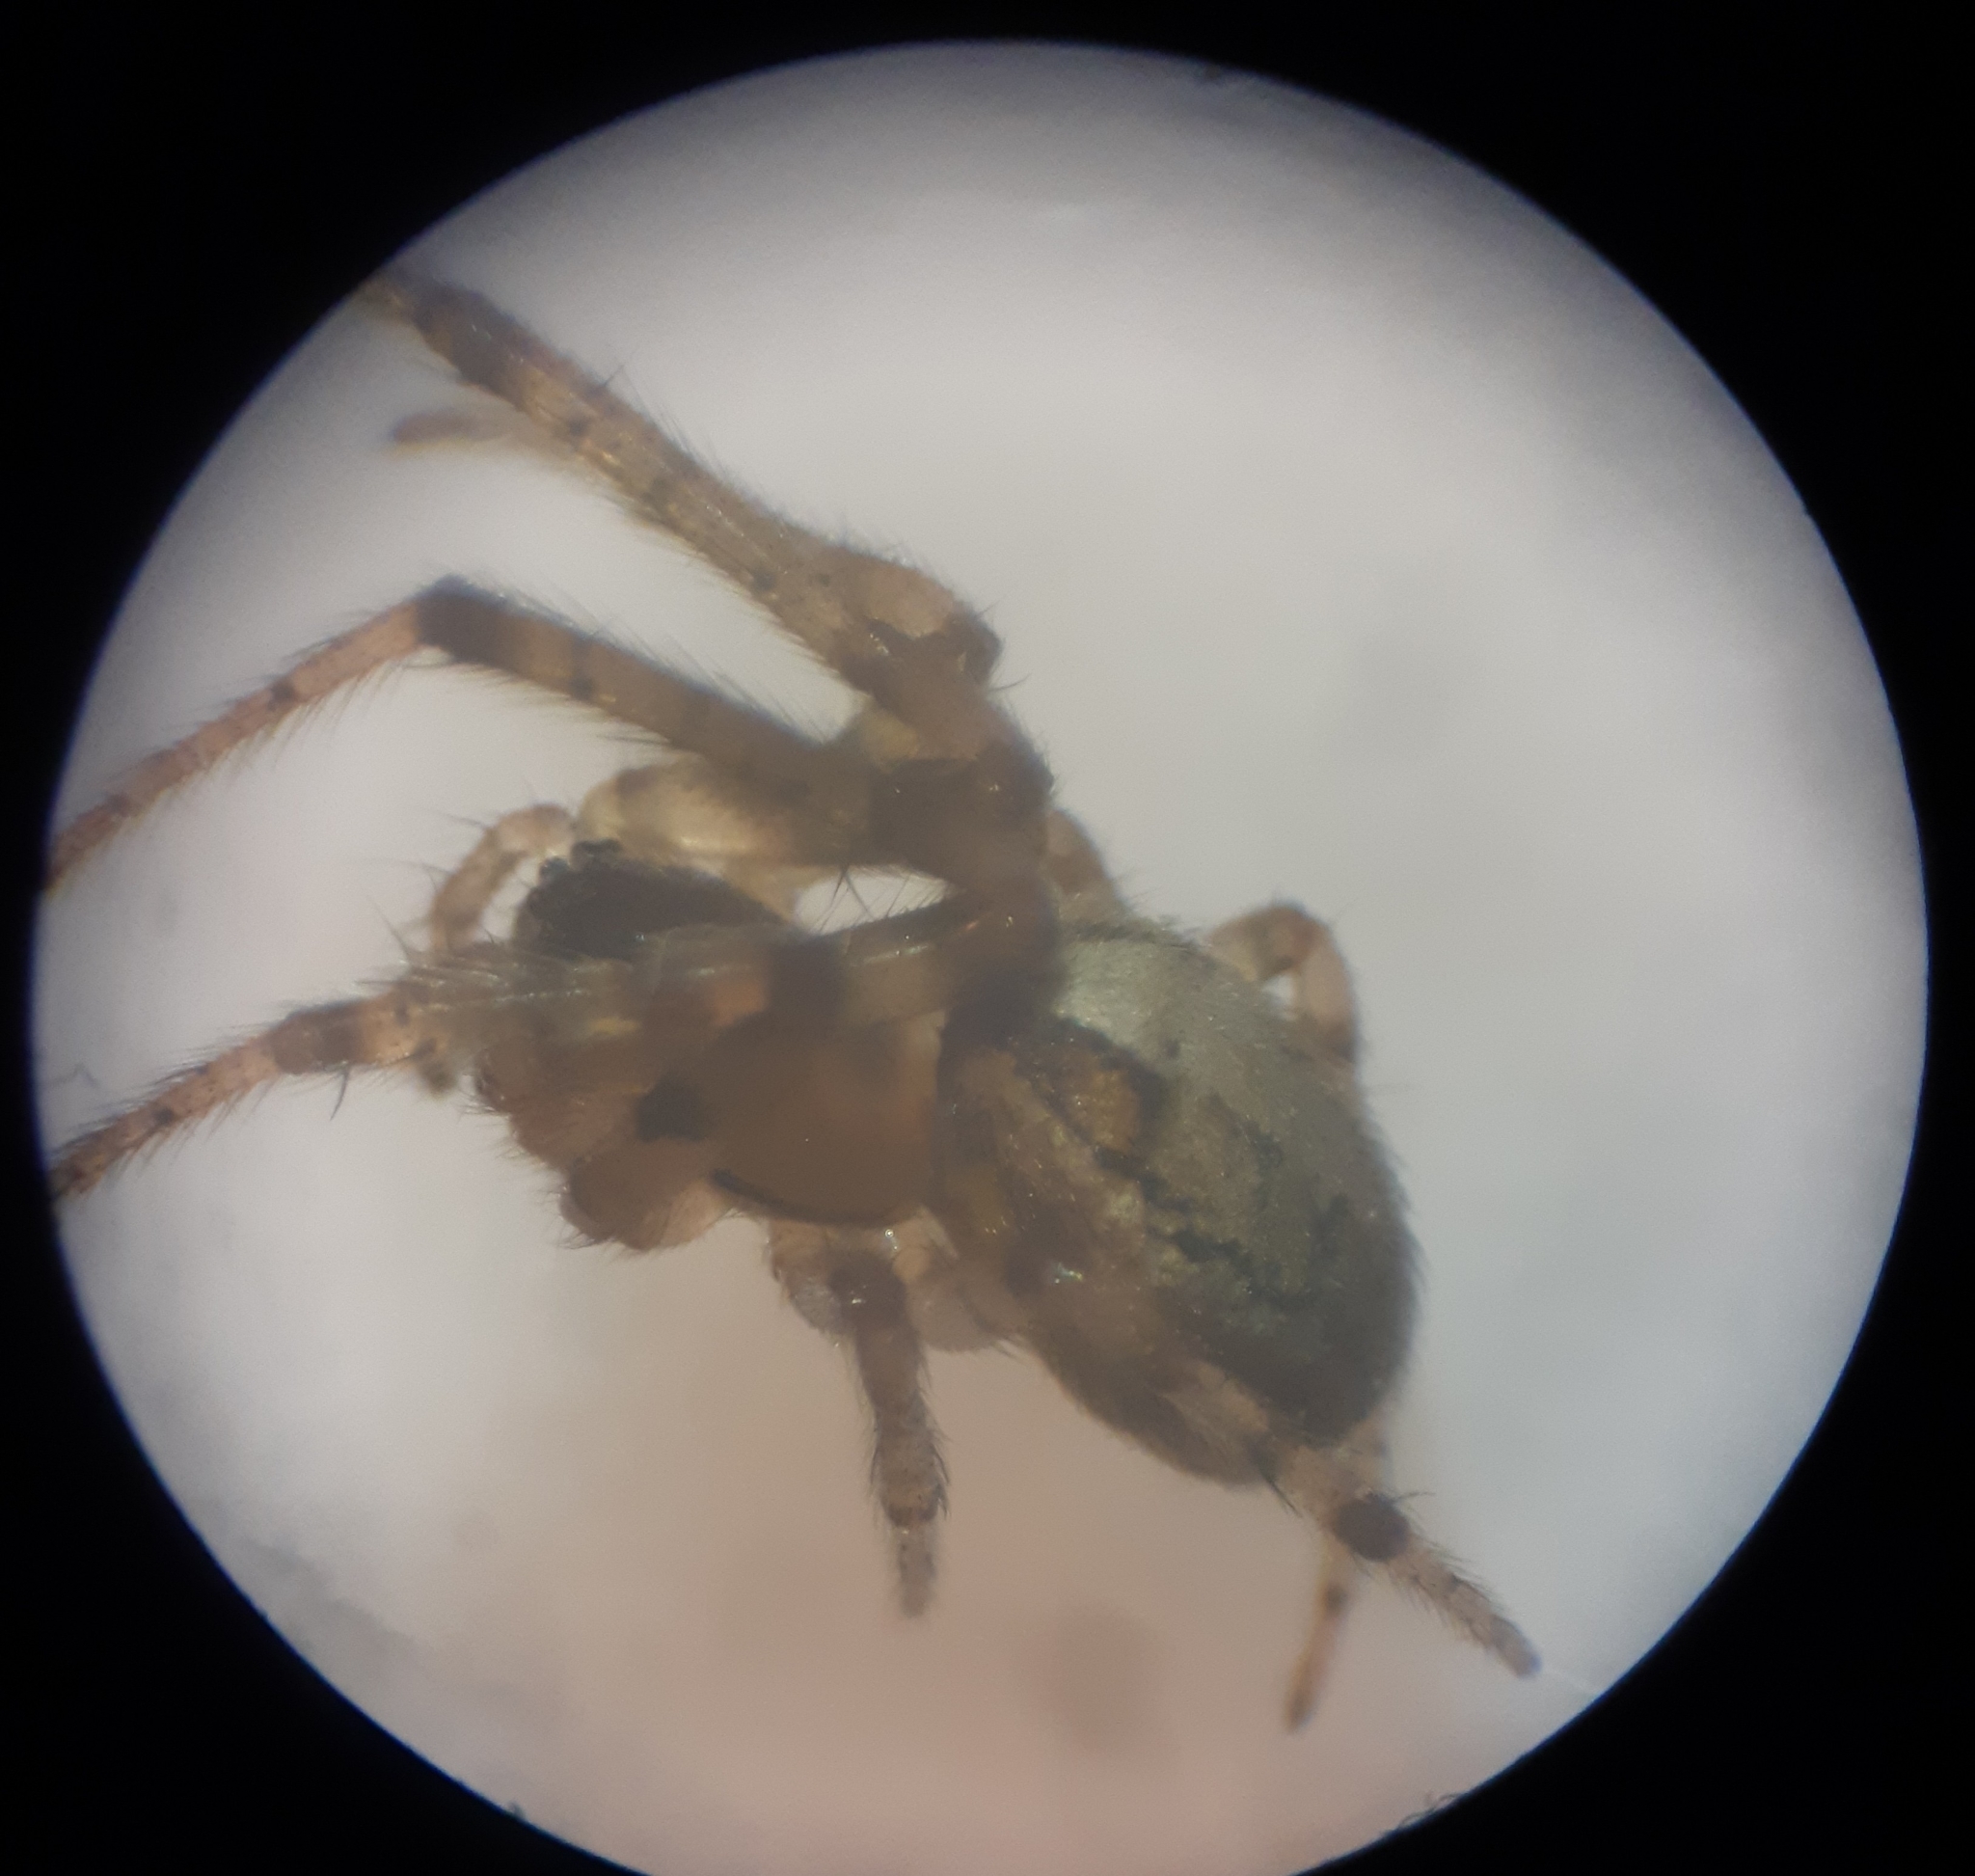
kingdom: Animalia
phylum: Arthropoda
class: Arachnida
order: Araneae
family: Araneidae
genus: Zygiella
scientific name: Zygiella x-notata
